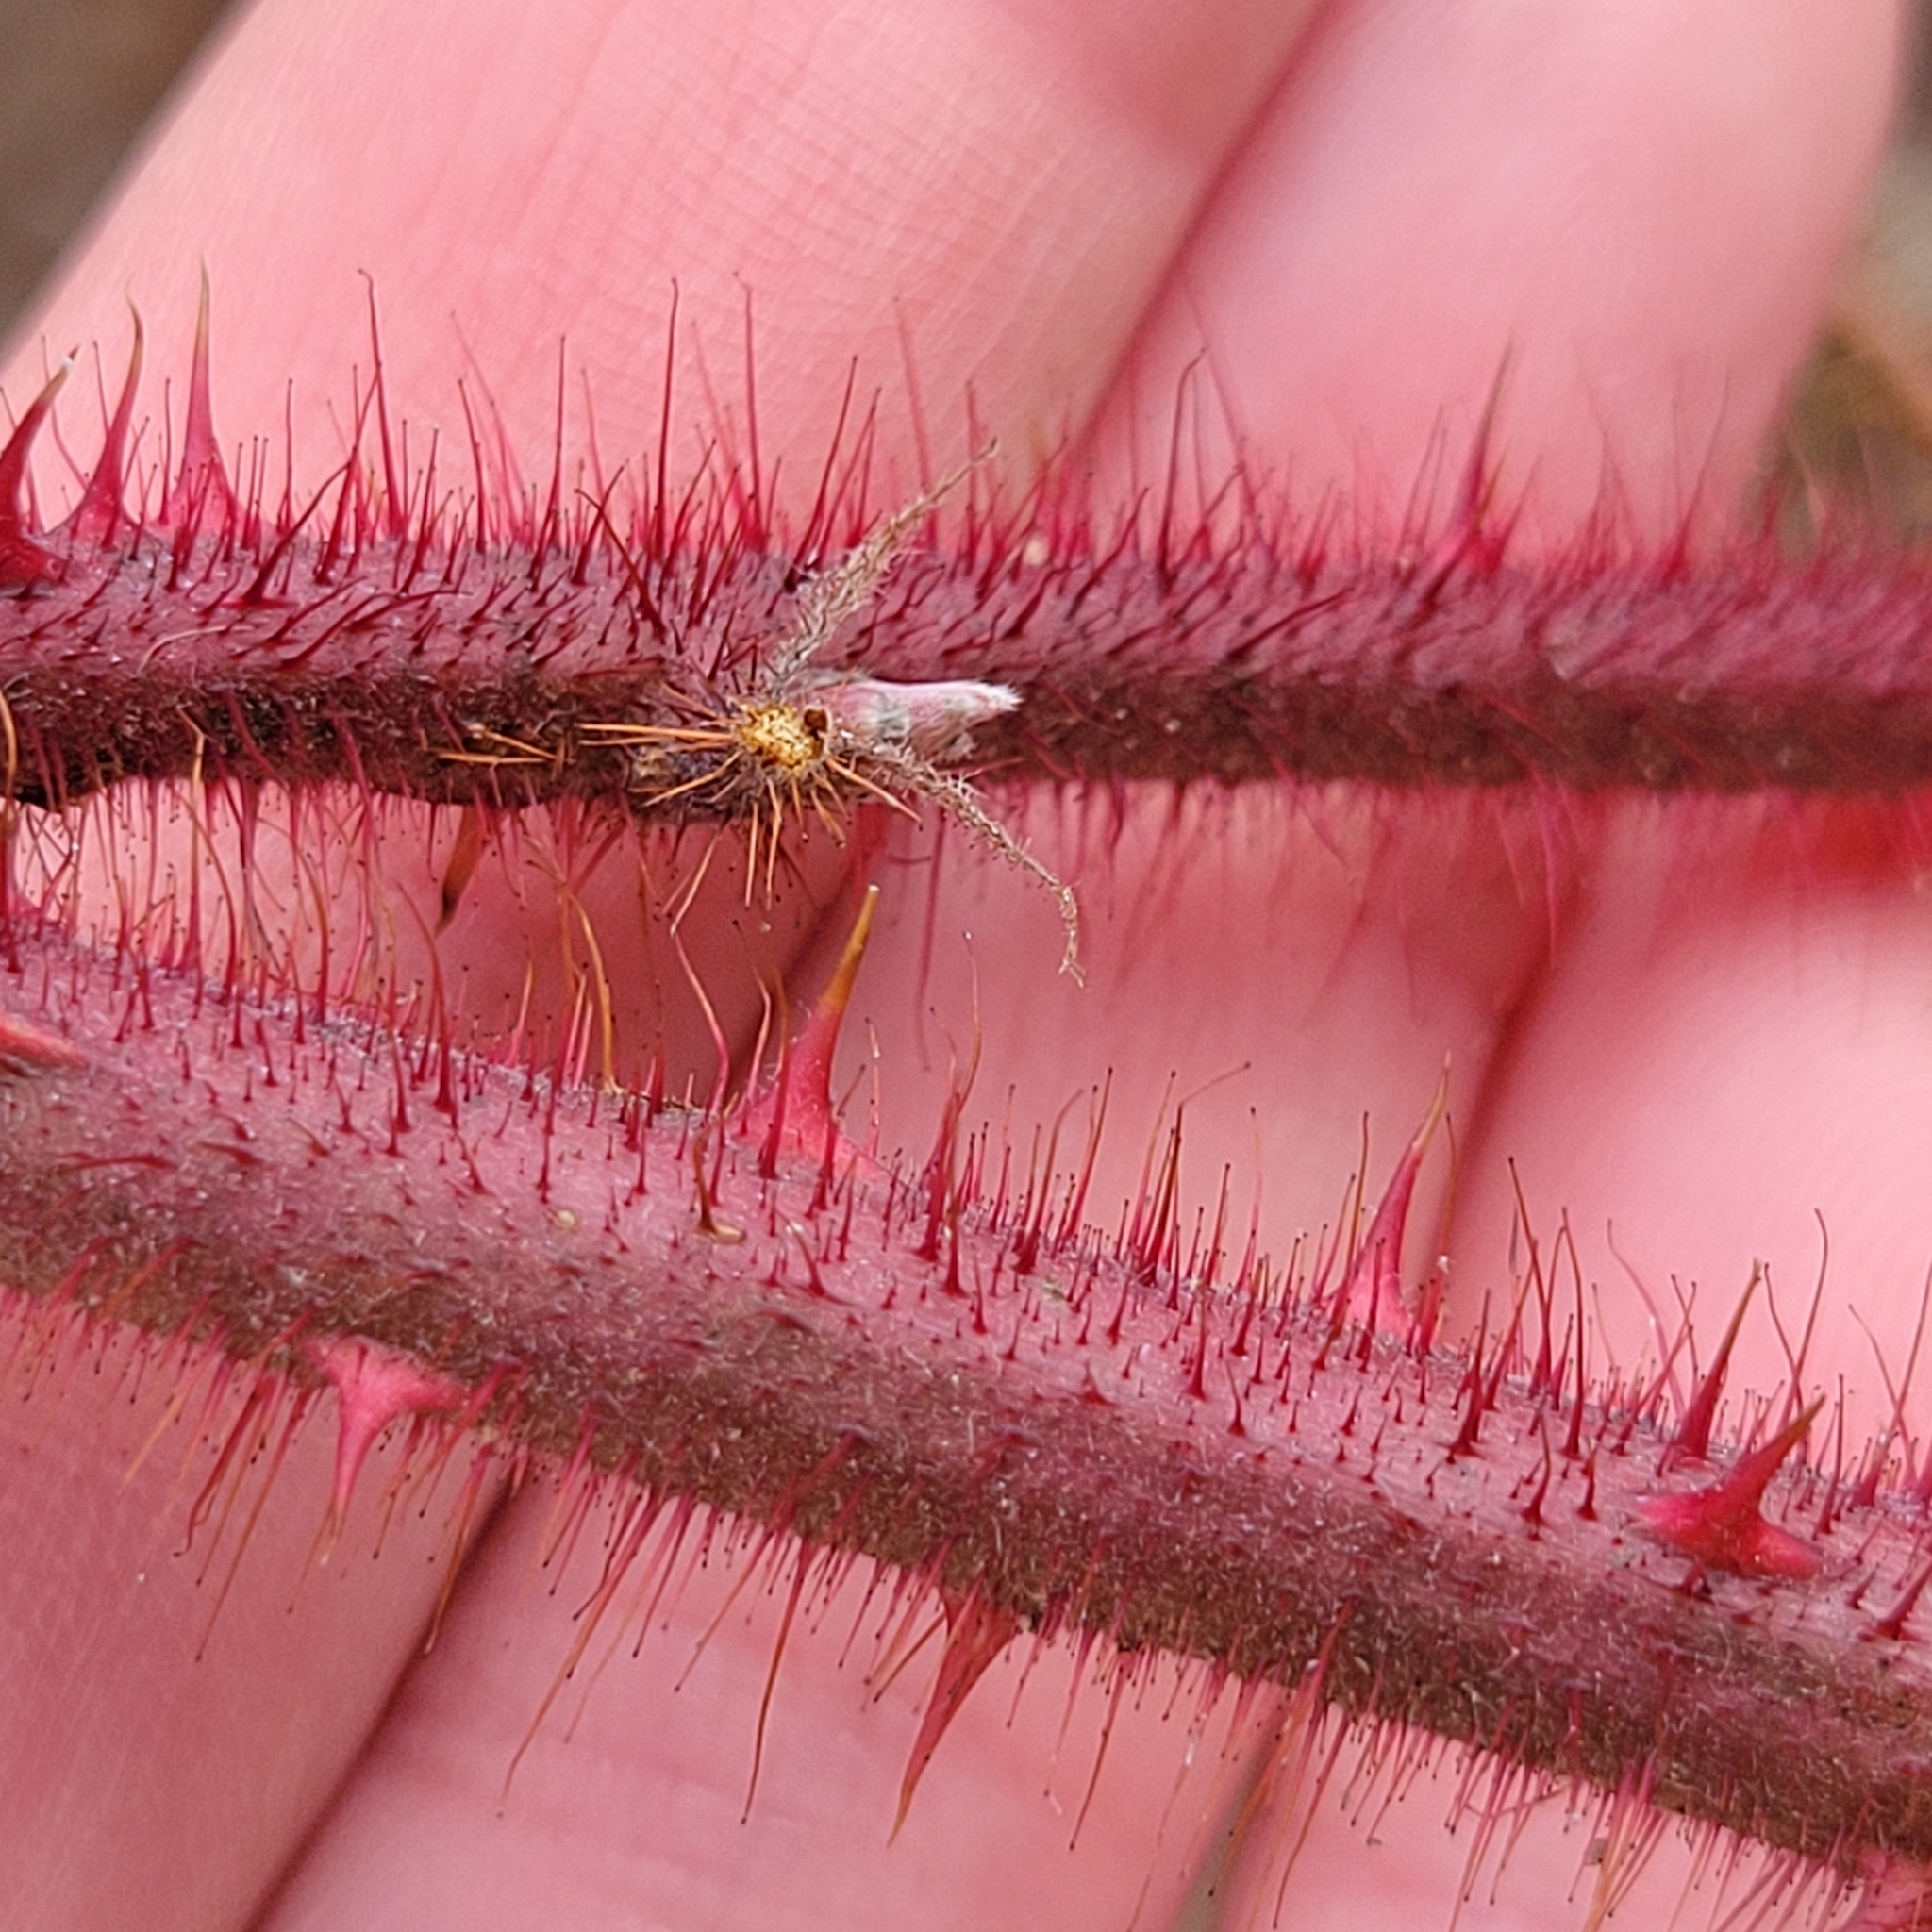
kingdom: Plantae
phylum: Tracheophyta
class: Magnoliopsida
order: Rosales
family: Rosaceae
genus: Rubus
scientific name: Rubus phoenicolasius
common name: Japanese wineberry
